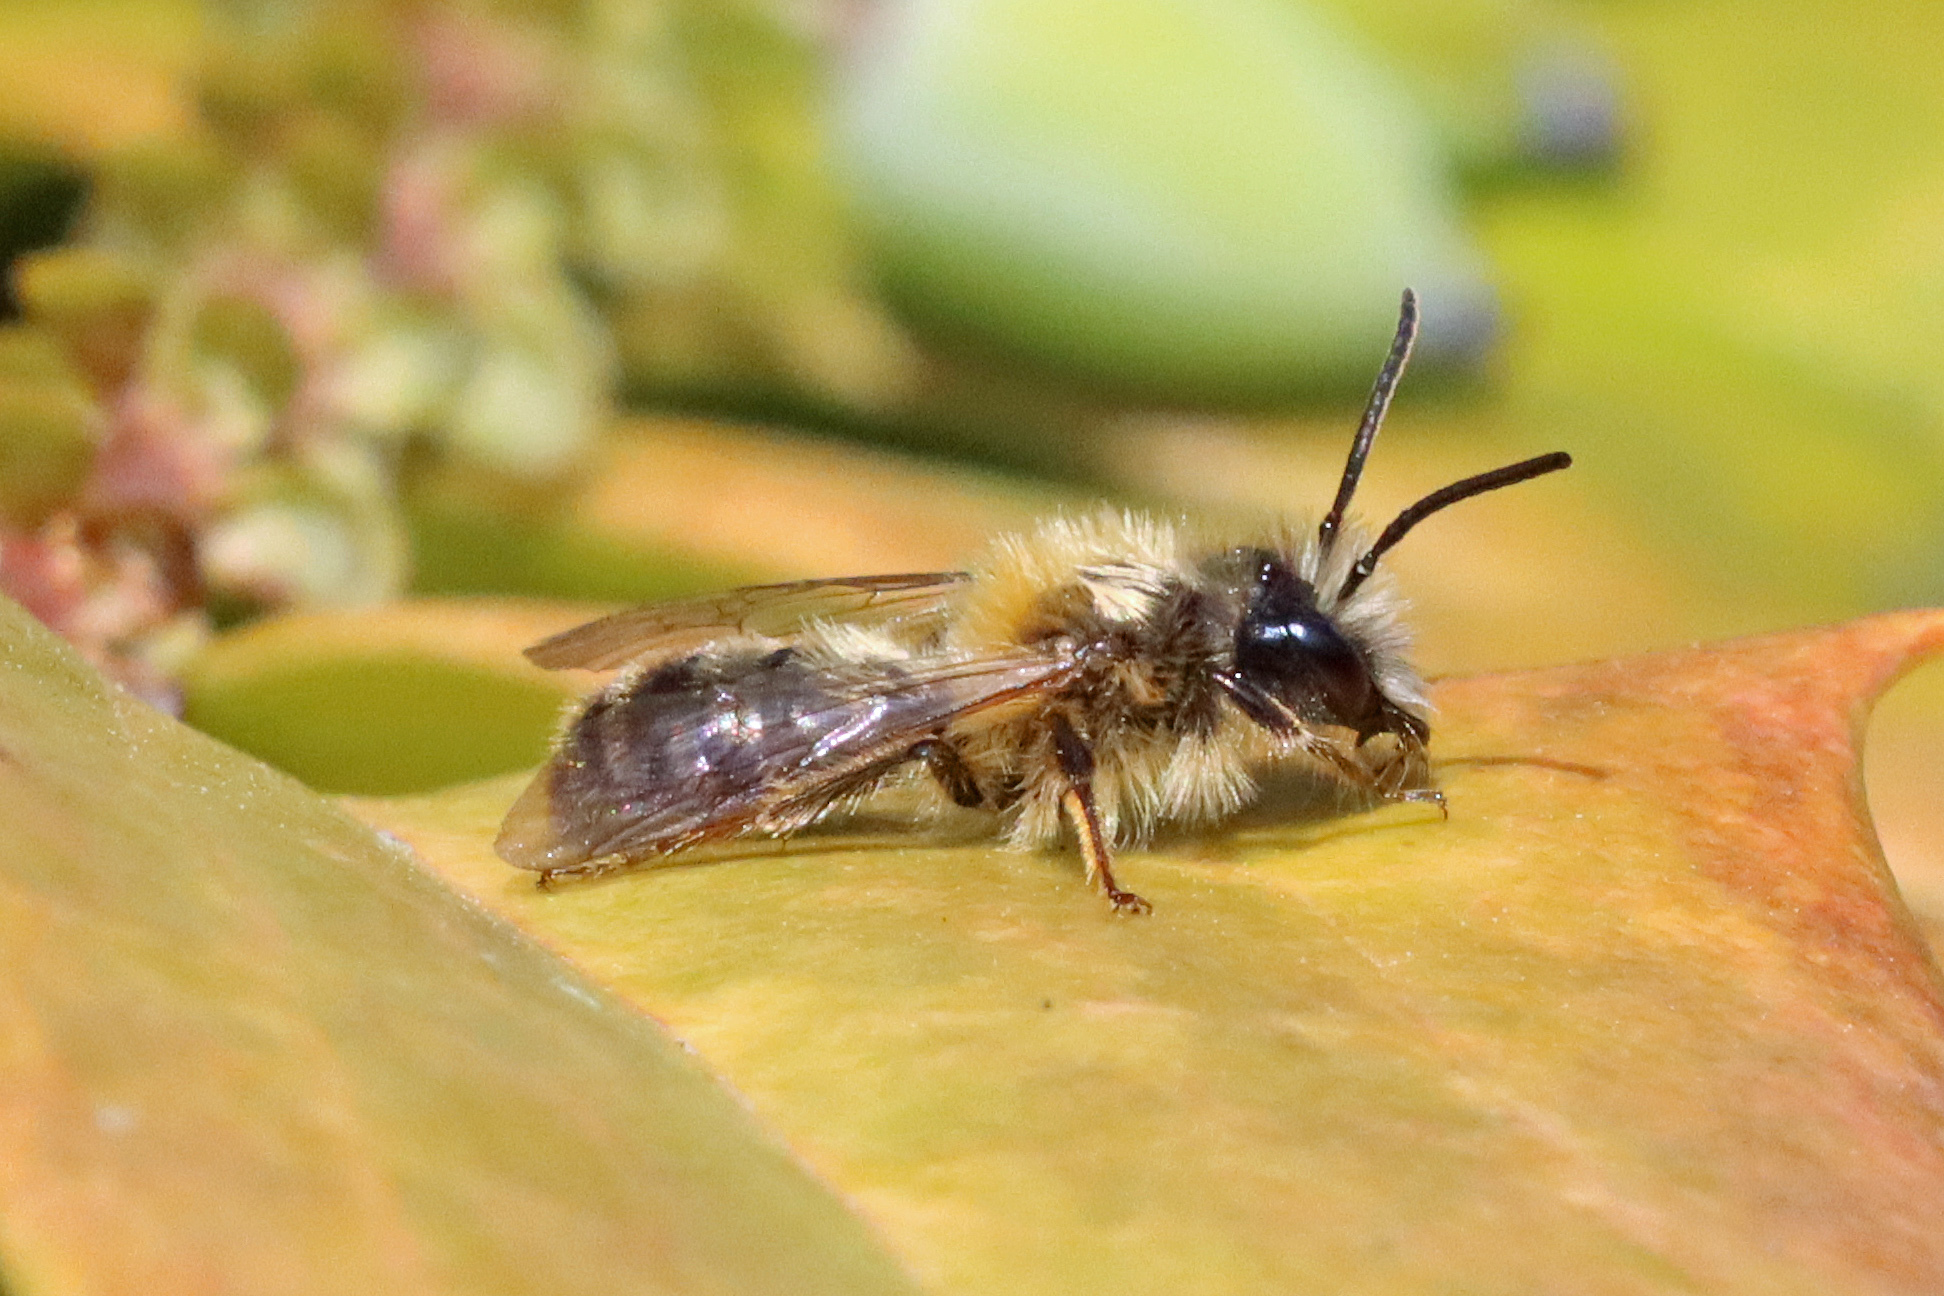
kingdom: Animalia
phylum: Arthropoda
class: Insecta
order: Hymenoptera
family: Andrenidae
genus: Andrena
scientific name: Andrena fulva
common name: Tawny mining bee
